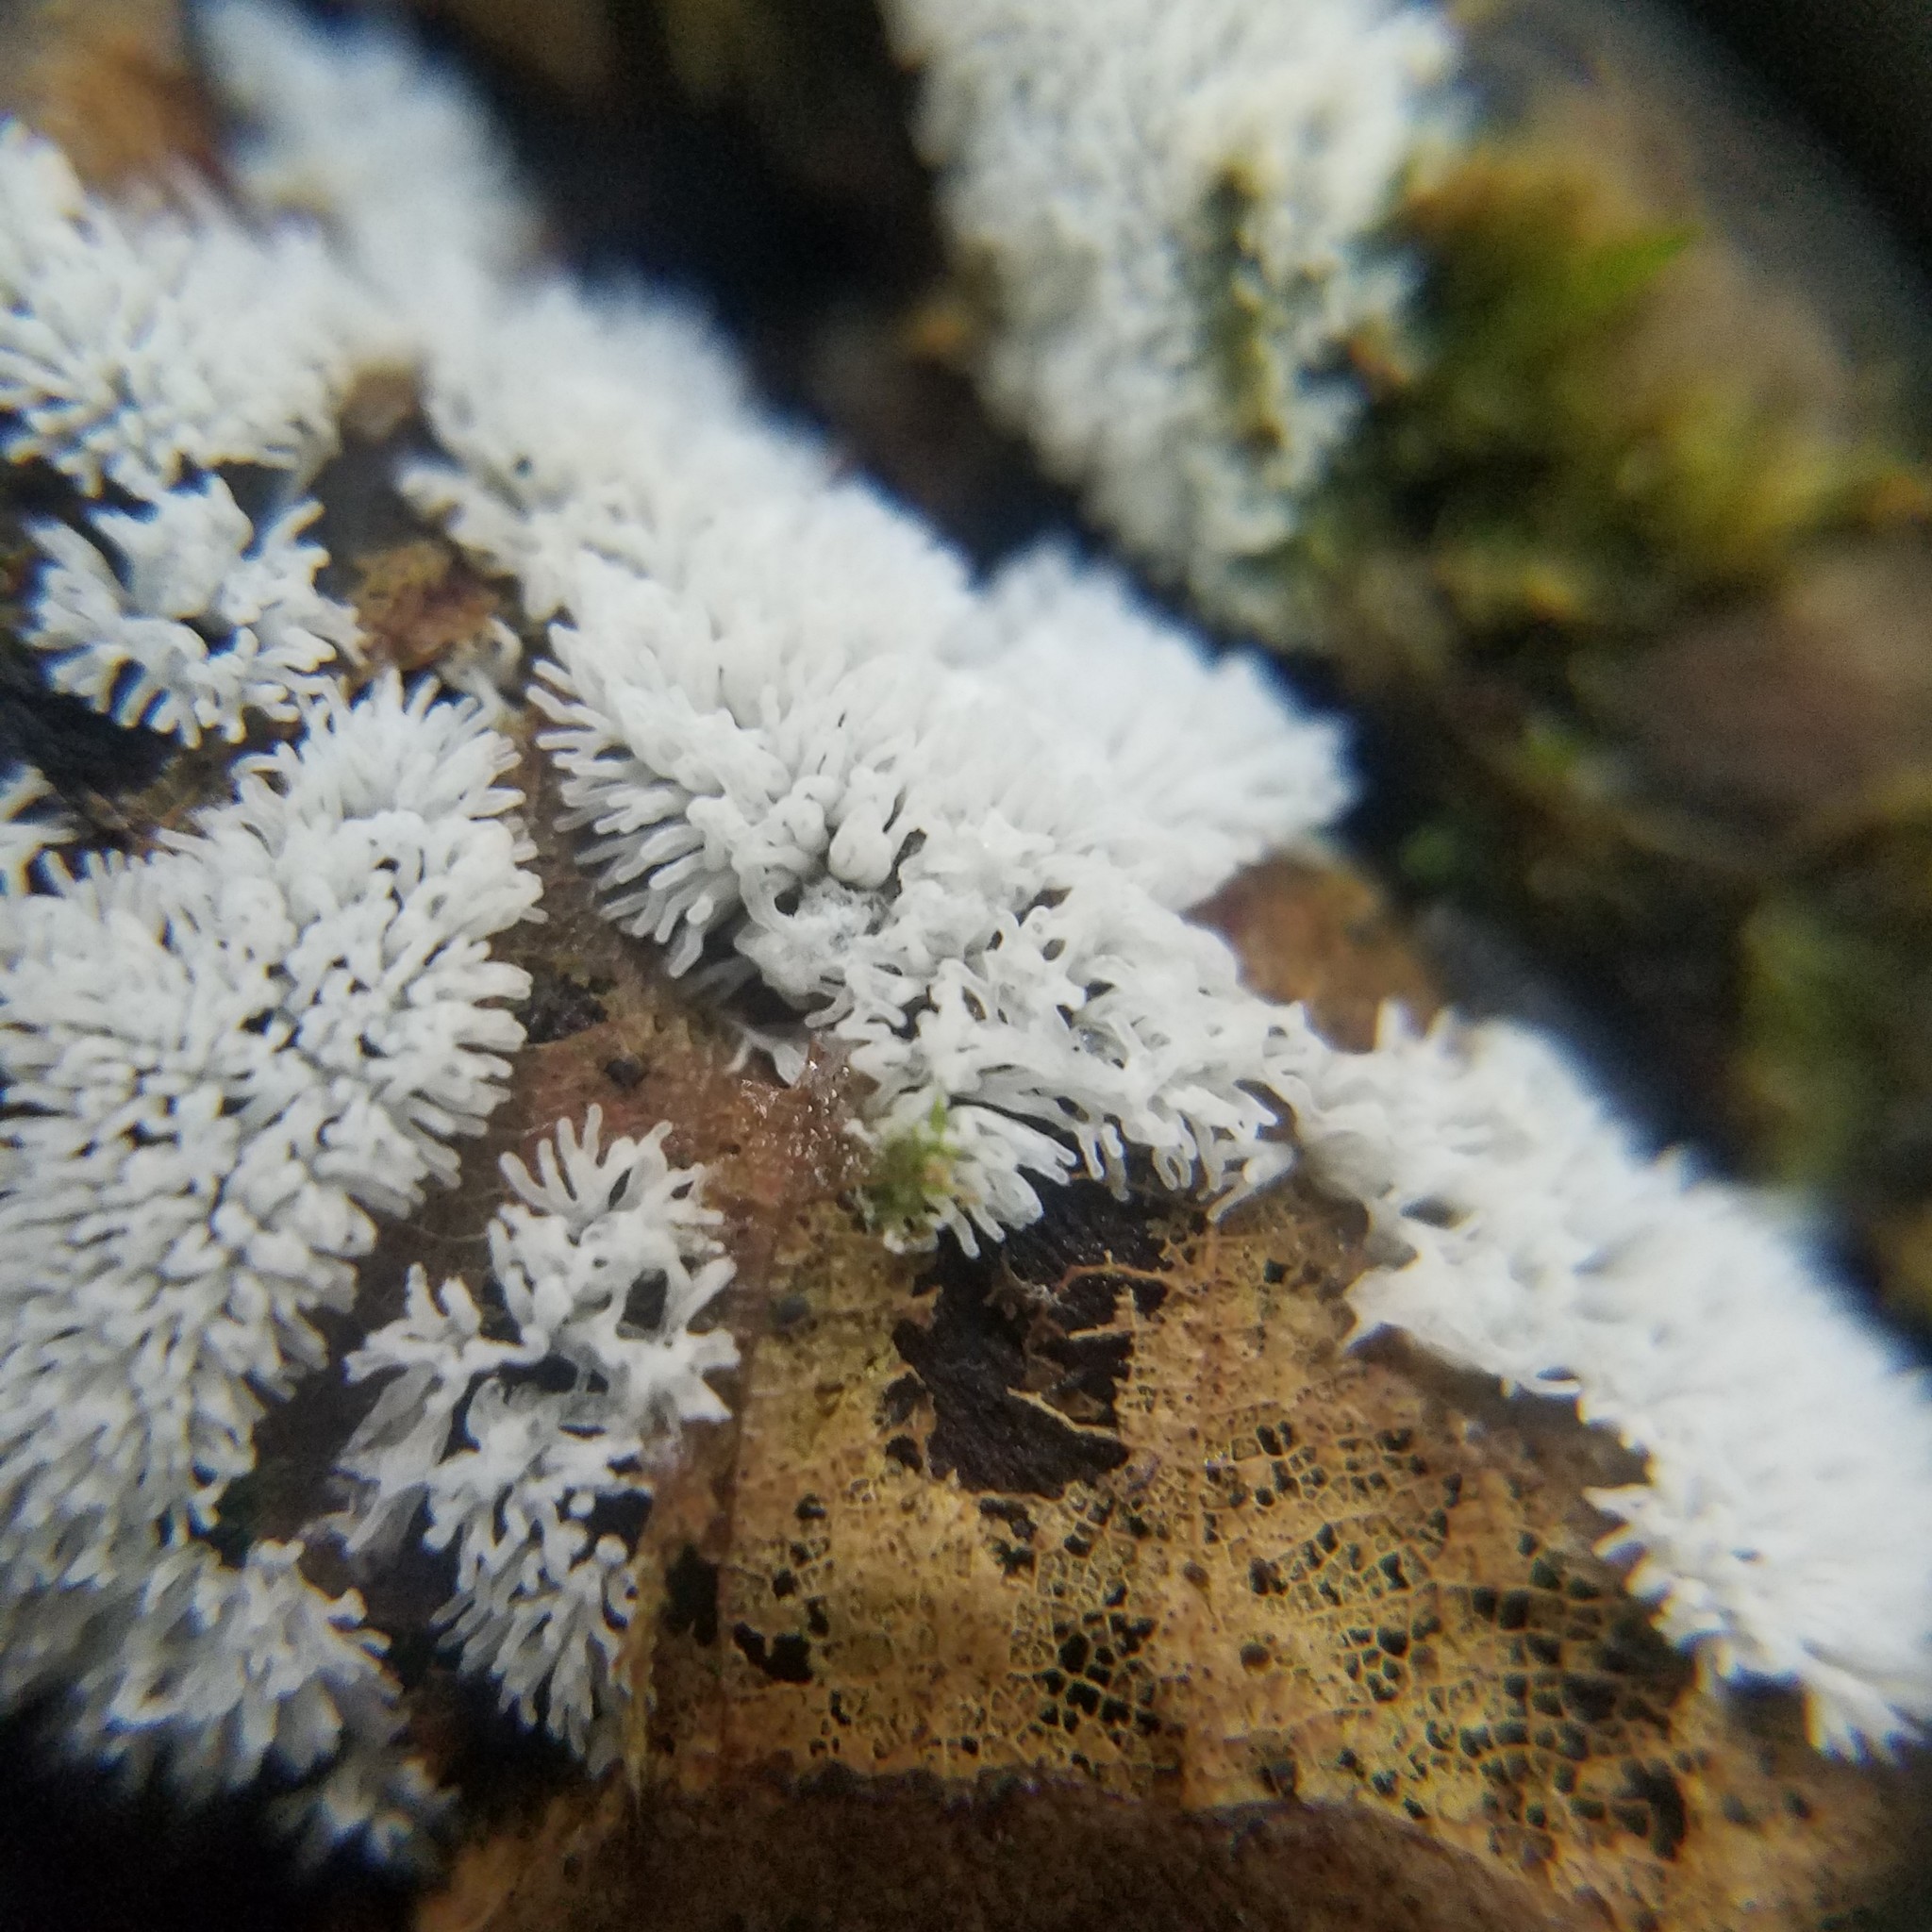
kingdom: Protozoa
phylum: Mycetozoa
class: Protosteliomycetes
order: Ceratiomyxales
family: Ceratiomyxaceae
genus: Ceratiomyxa
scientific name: Ceratiomyxa fruticulosa
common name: Honeycomb coral slime mold
